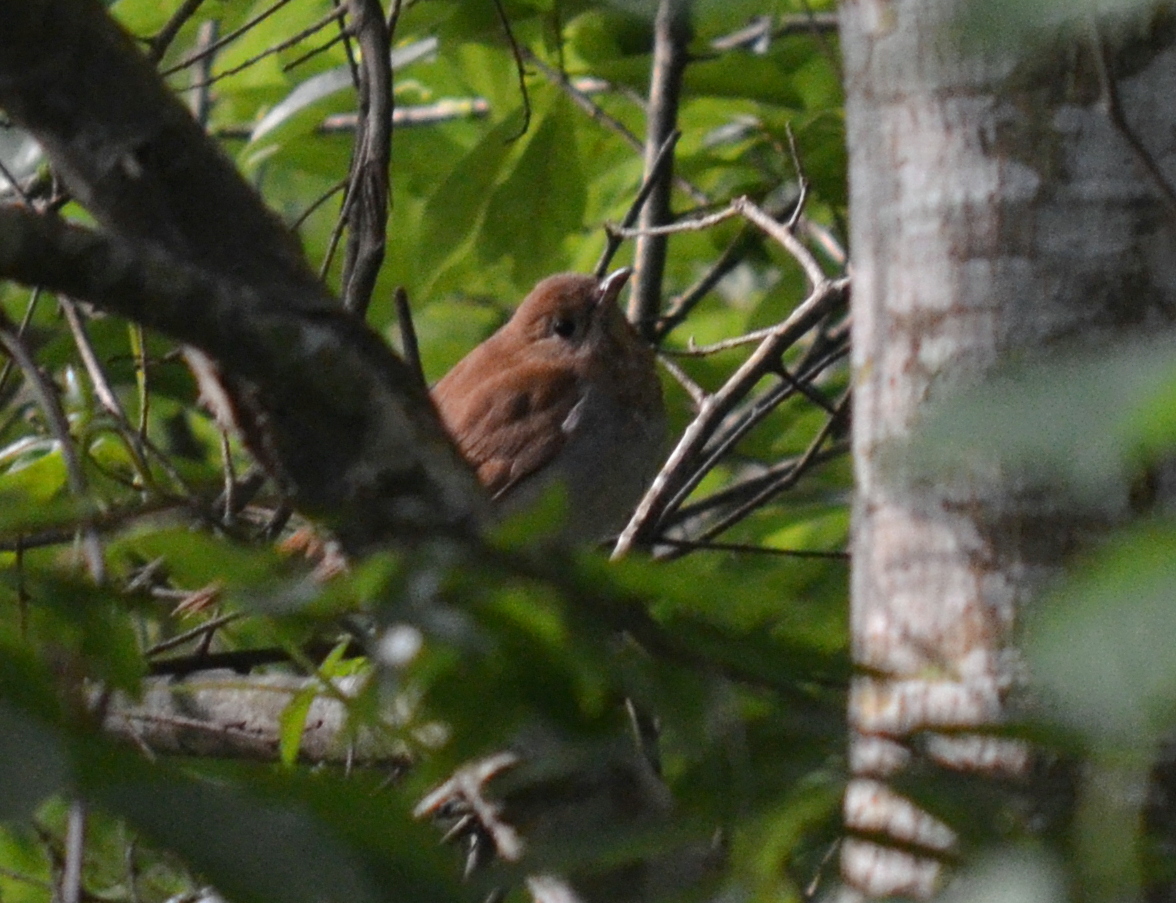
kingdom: Animalia
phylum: Chordata
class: Aves
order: Passeriformes
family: Turdidae
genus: Catharus
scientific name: Catharus fuscescens
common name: Veery
